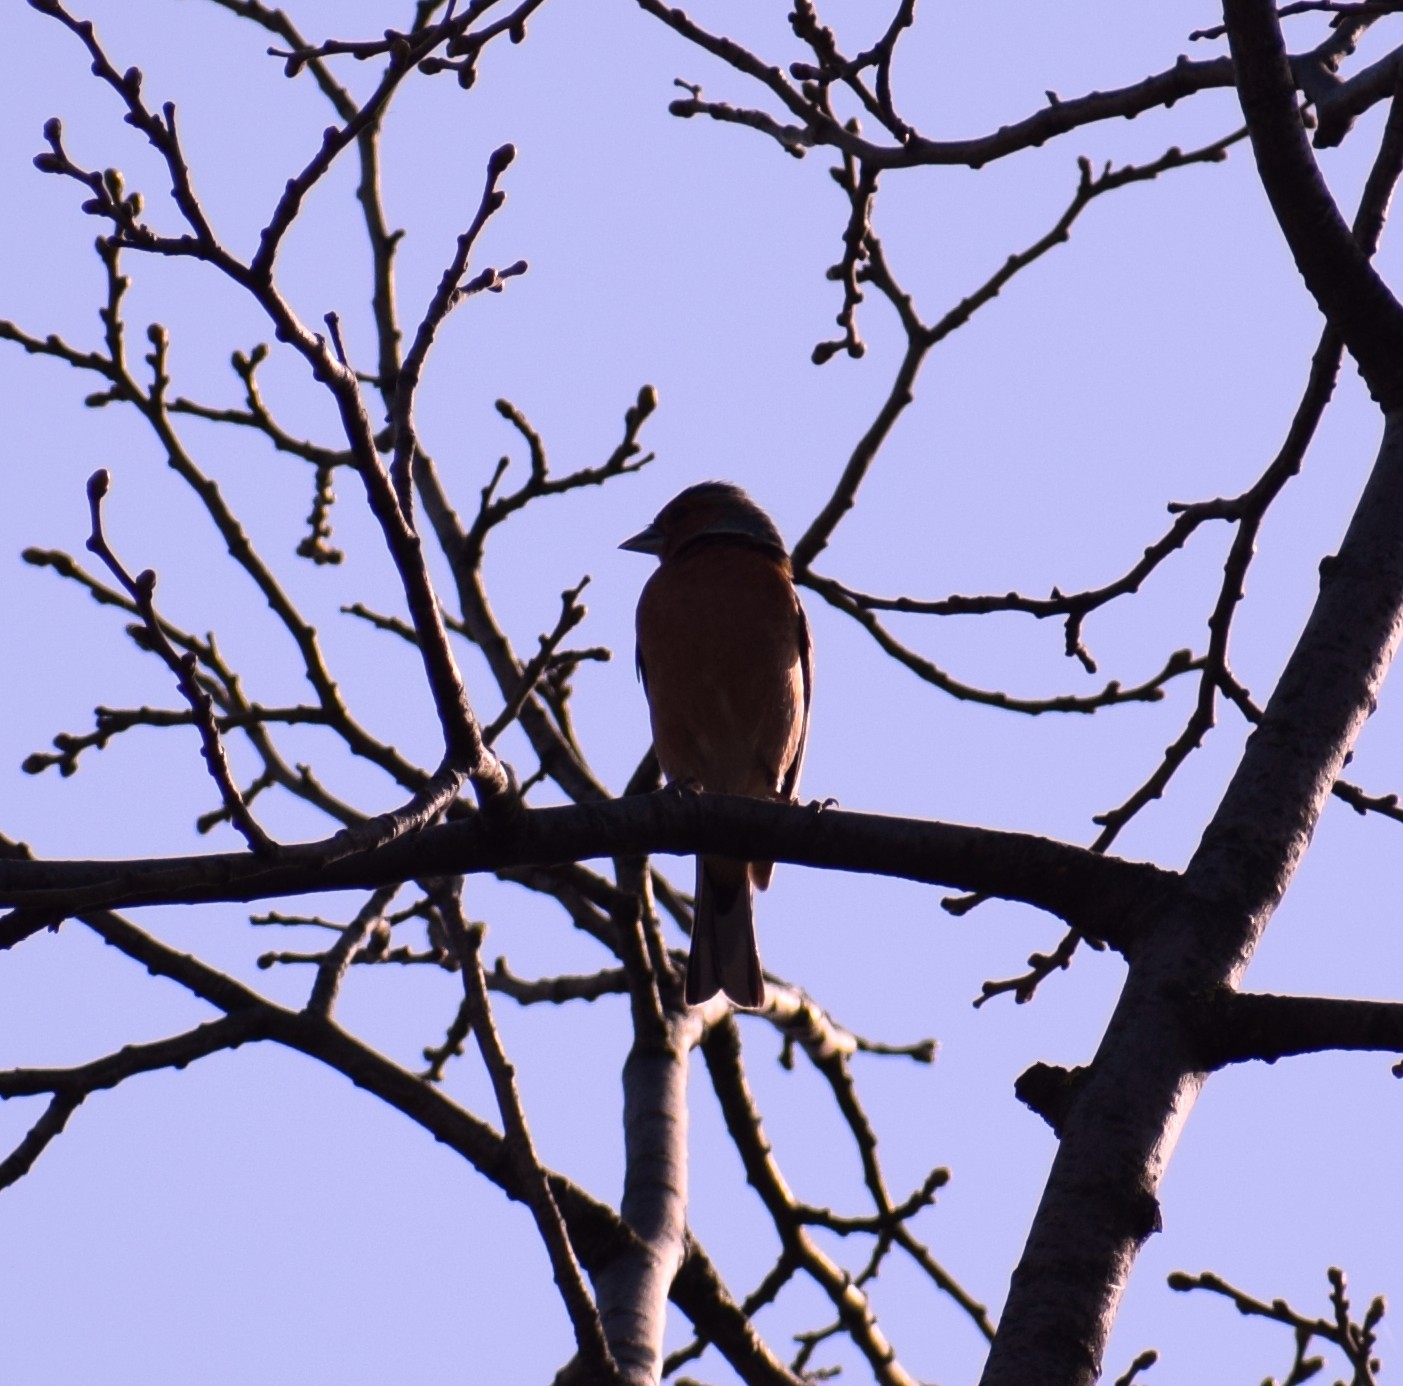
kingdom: Animalia
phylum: Chordata
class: Aves
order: Passeriformes
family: Fringillidae
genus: Fringilla
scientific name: Fringilla coelebs
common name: Common chaffinch
